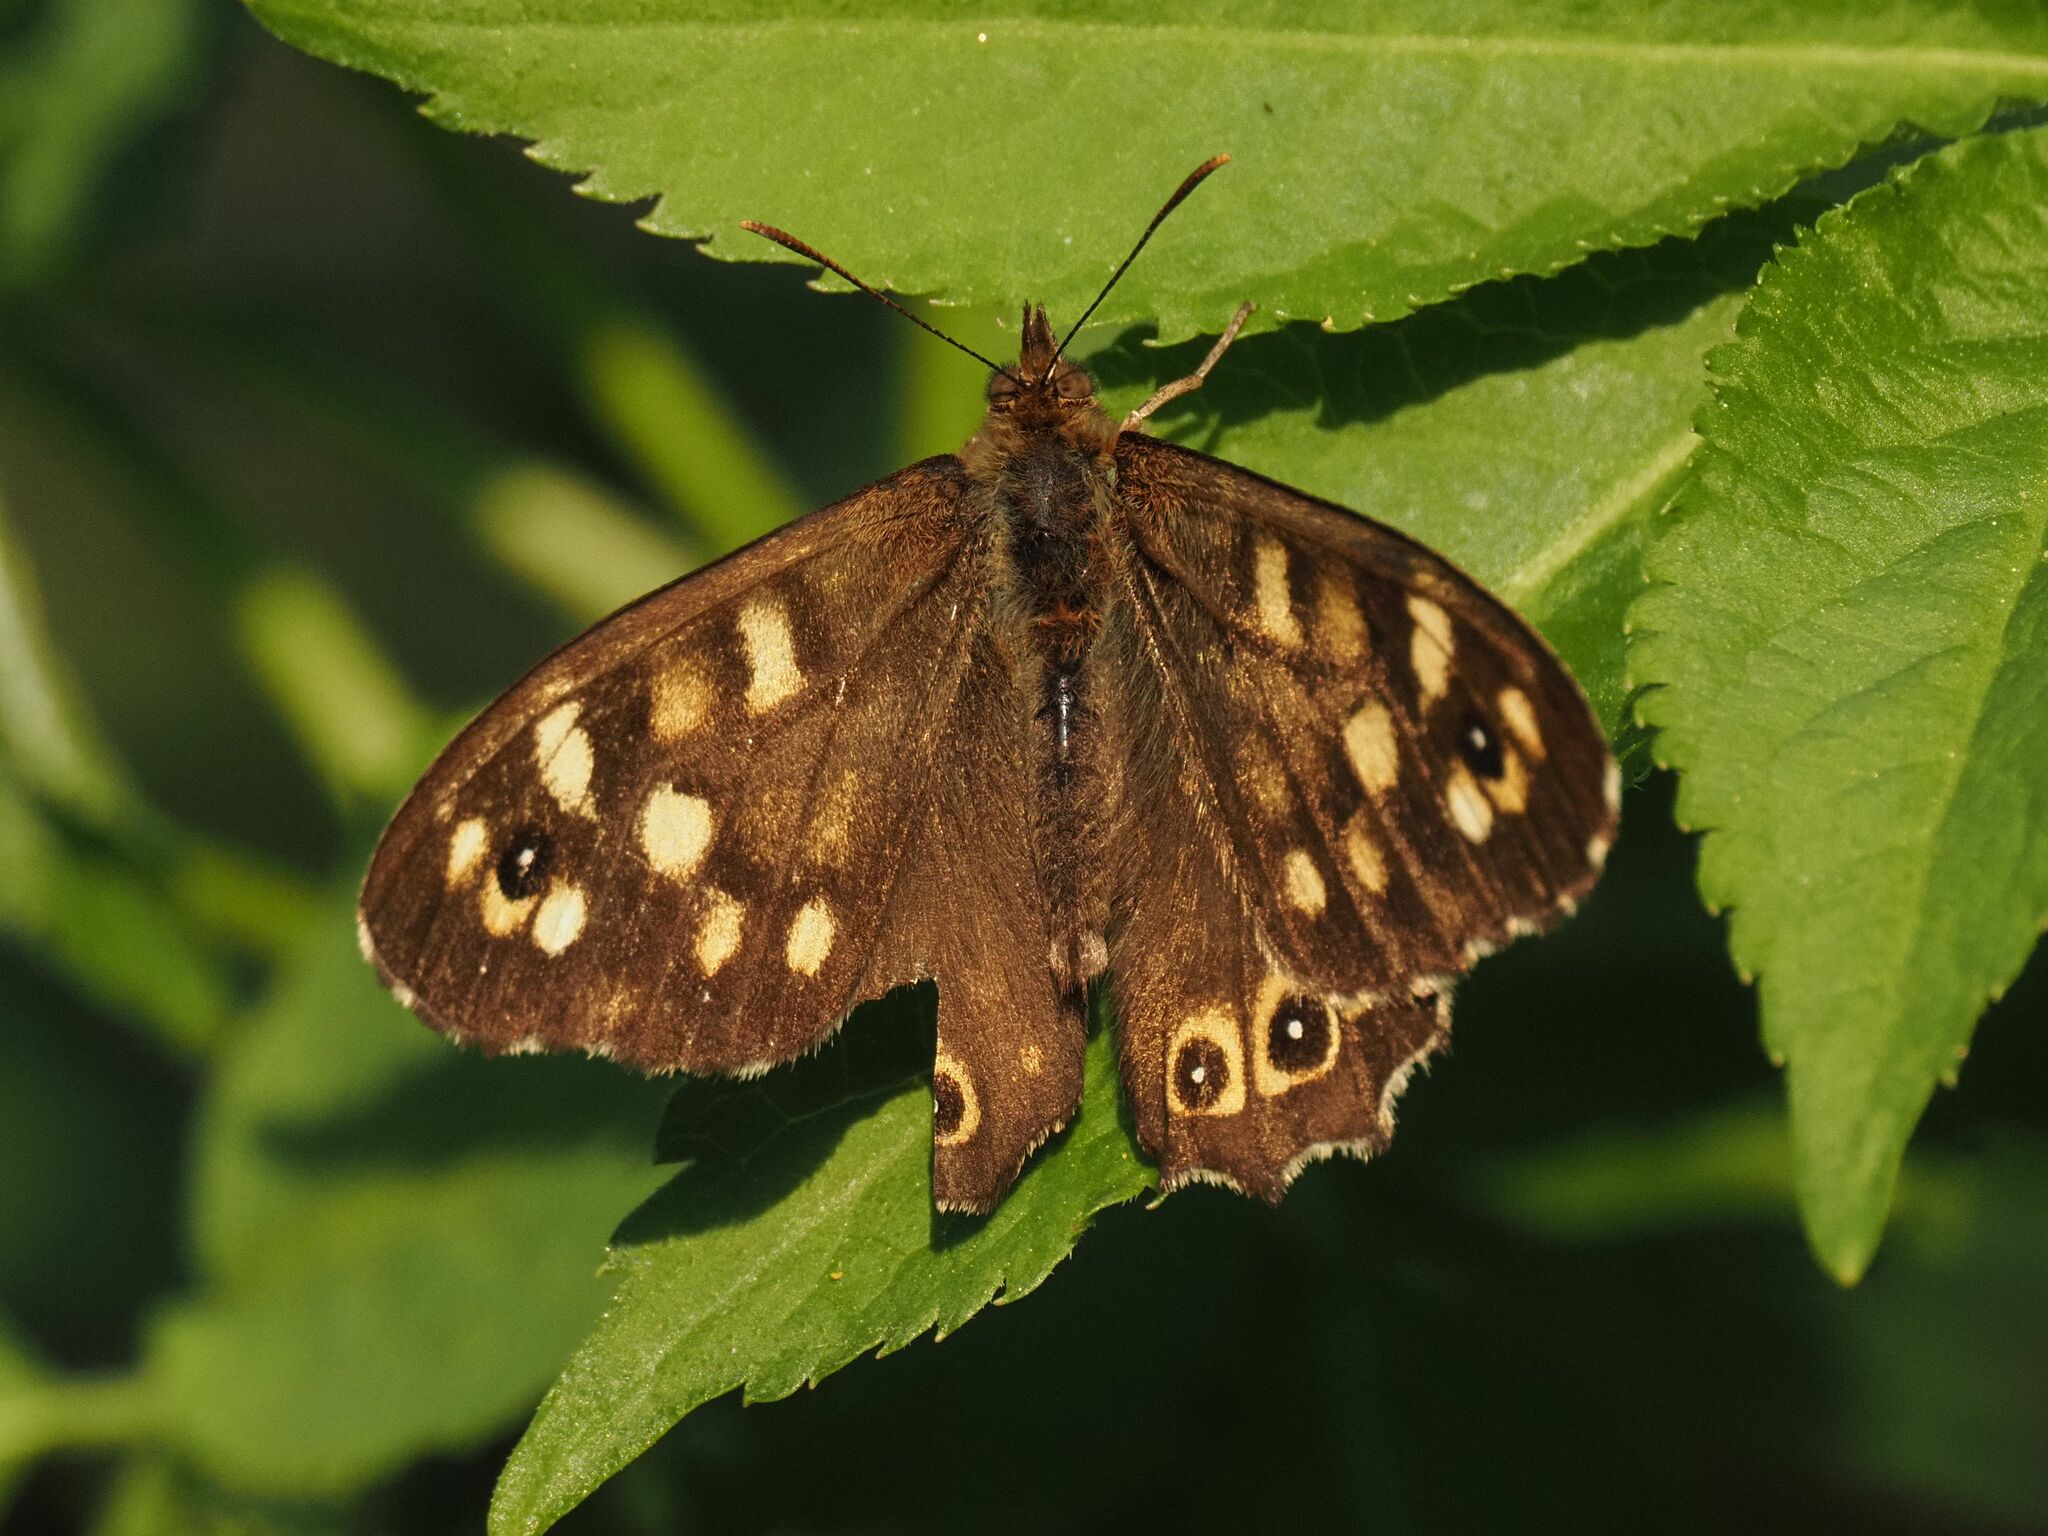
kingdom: Animalia
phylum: Arthropoda
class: Insecta
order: Lepidoptera
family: Nymphalidae
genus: Pararge
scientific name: Pararge aegeria
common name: Speckled wood
